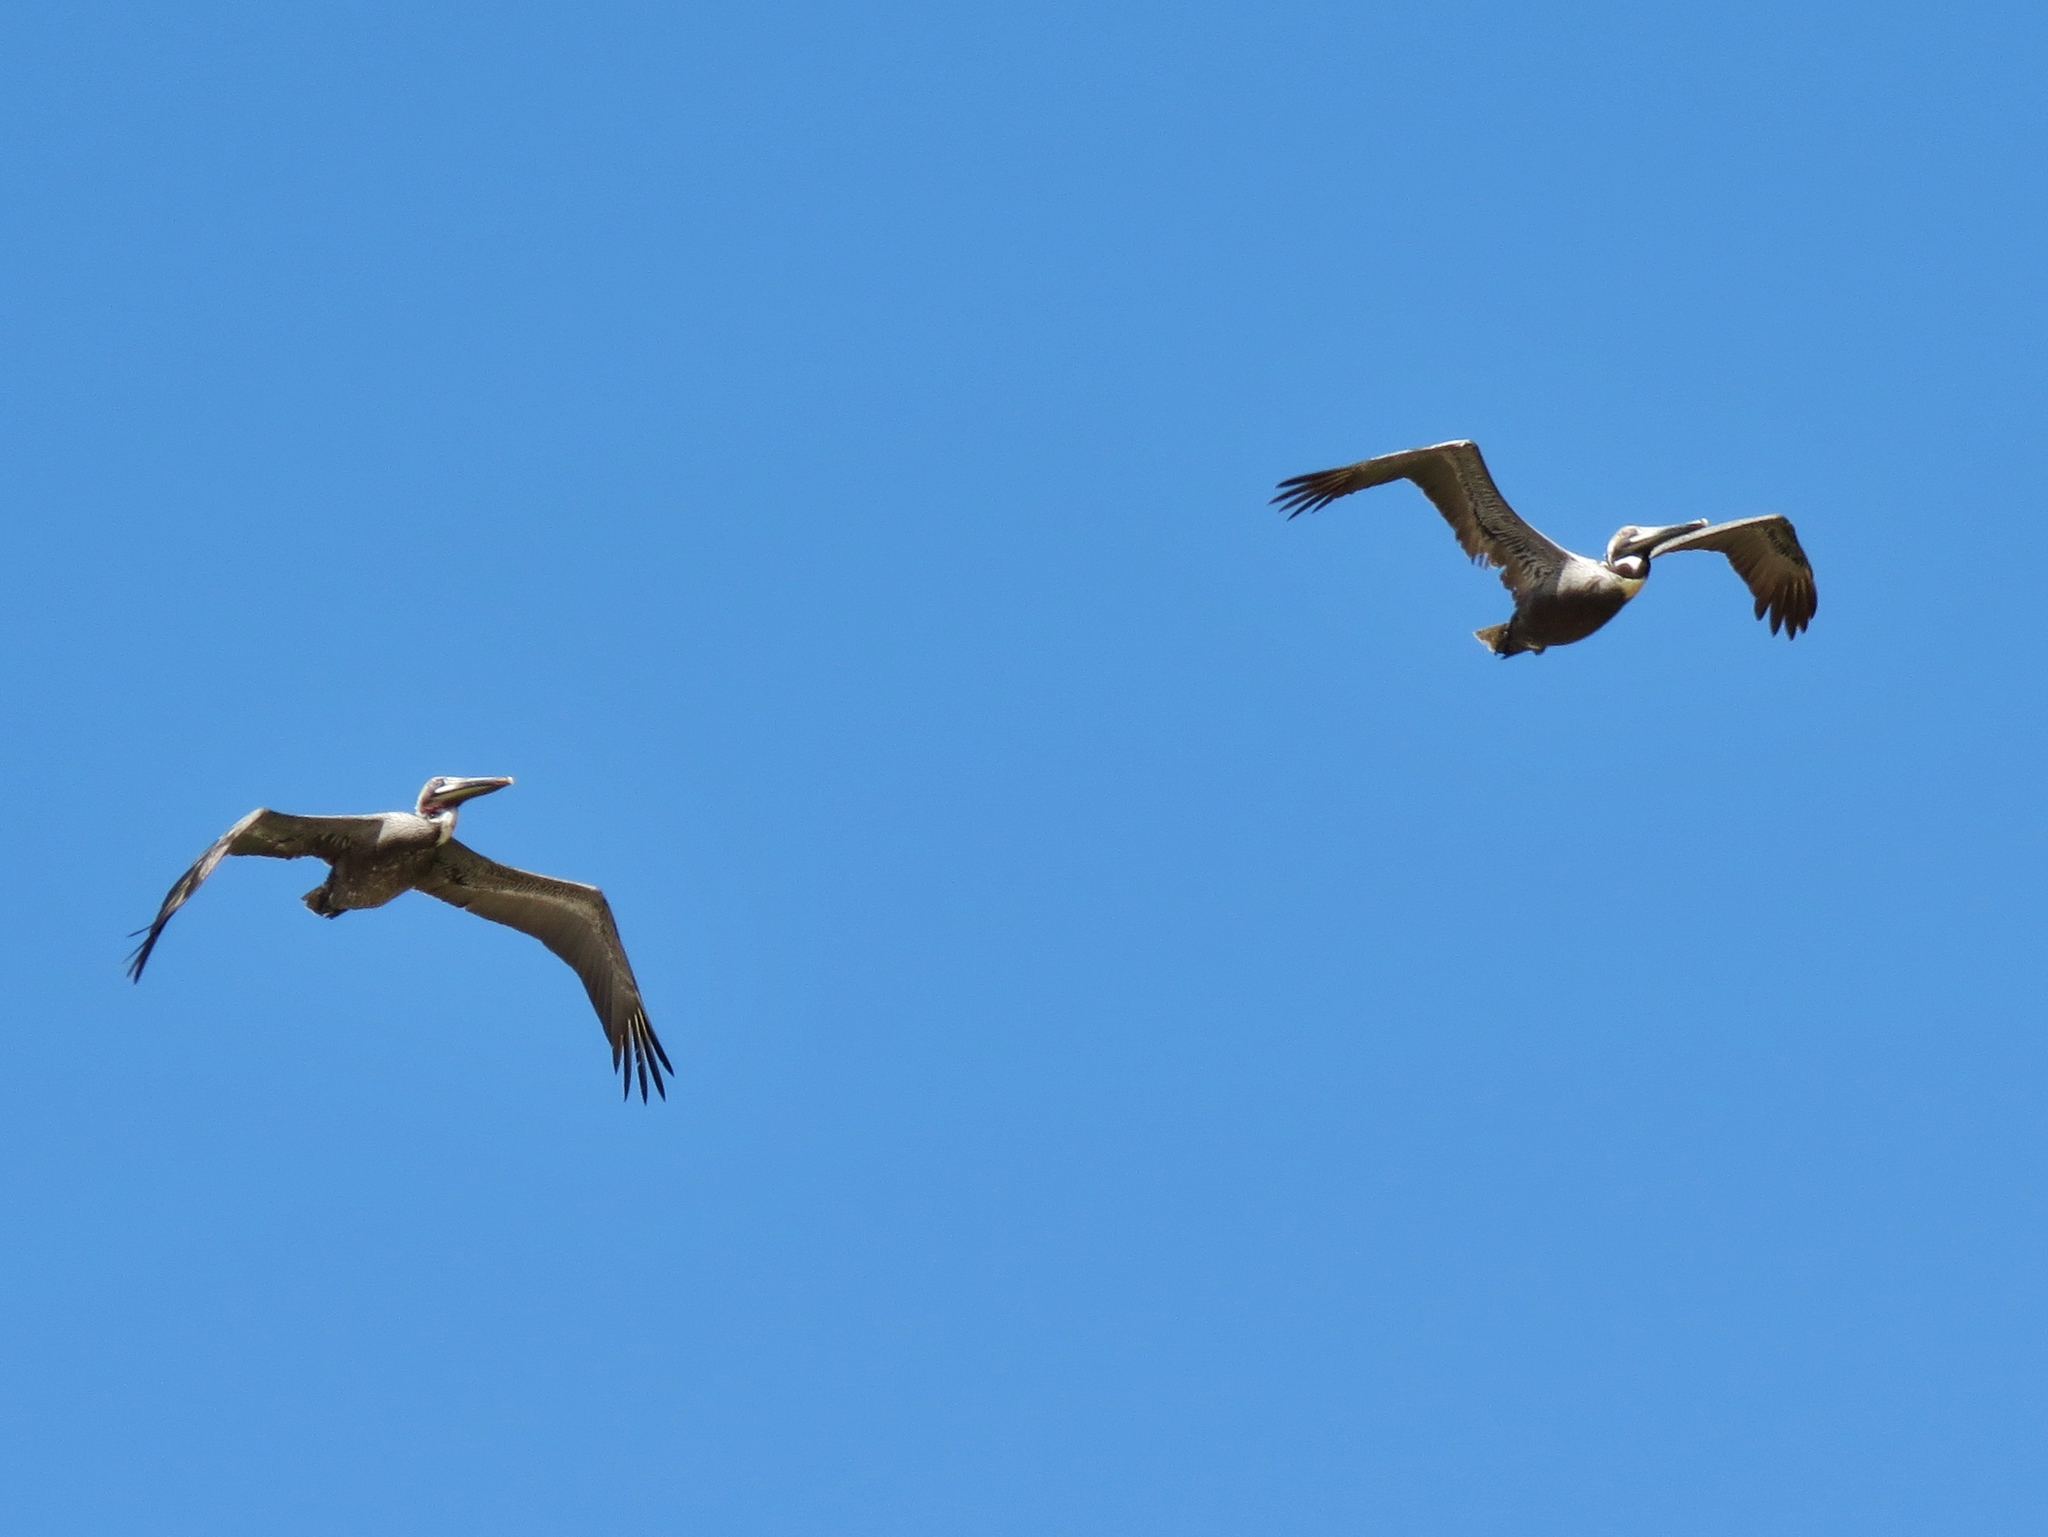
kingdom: Animalia
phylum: Chordata
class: Aves
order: Pelecaniformes
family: Pelecanidae
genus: Pelecanus
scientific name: Pelecanus occidentalis
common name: Brown pelican
